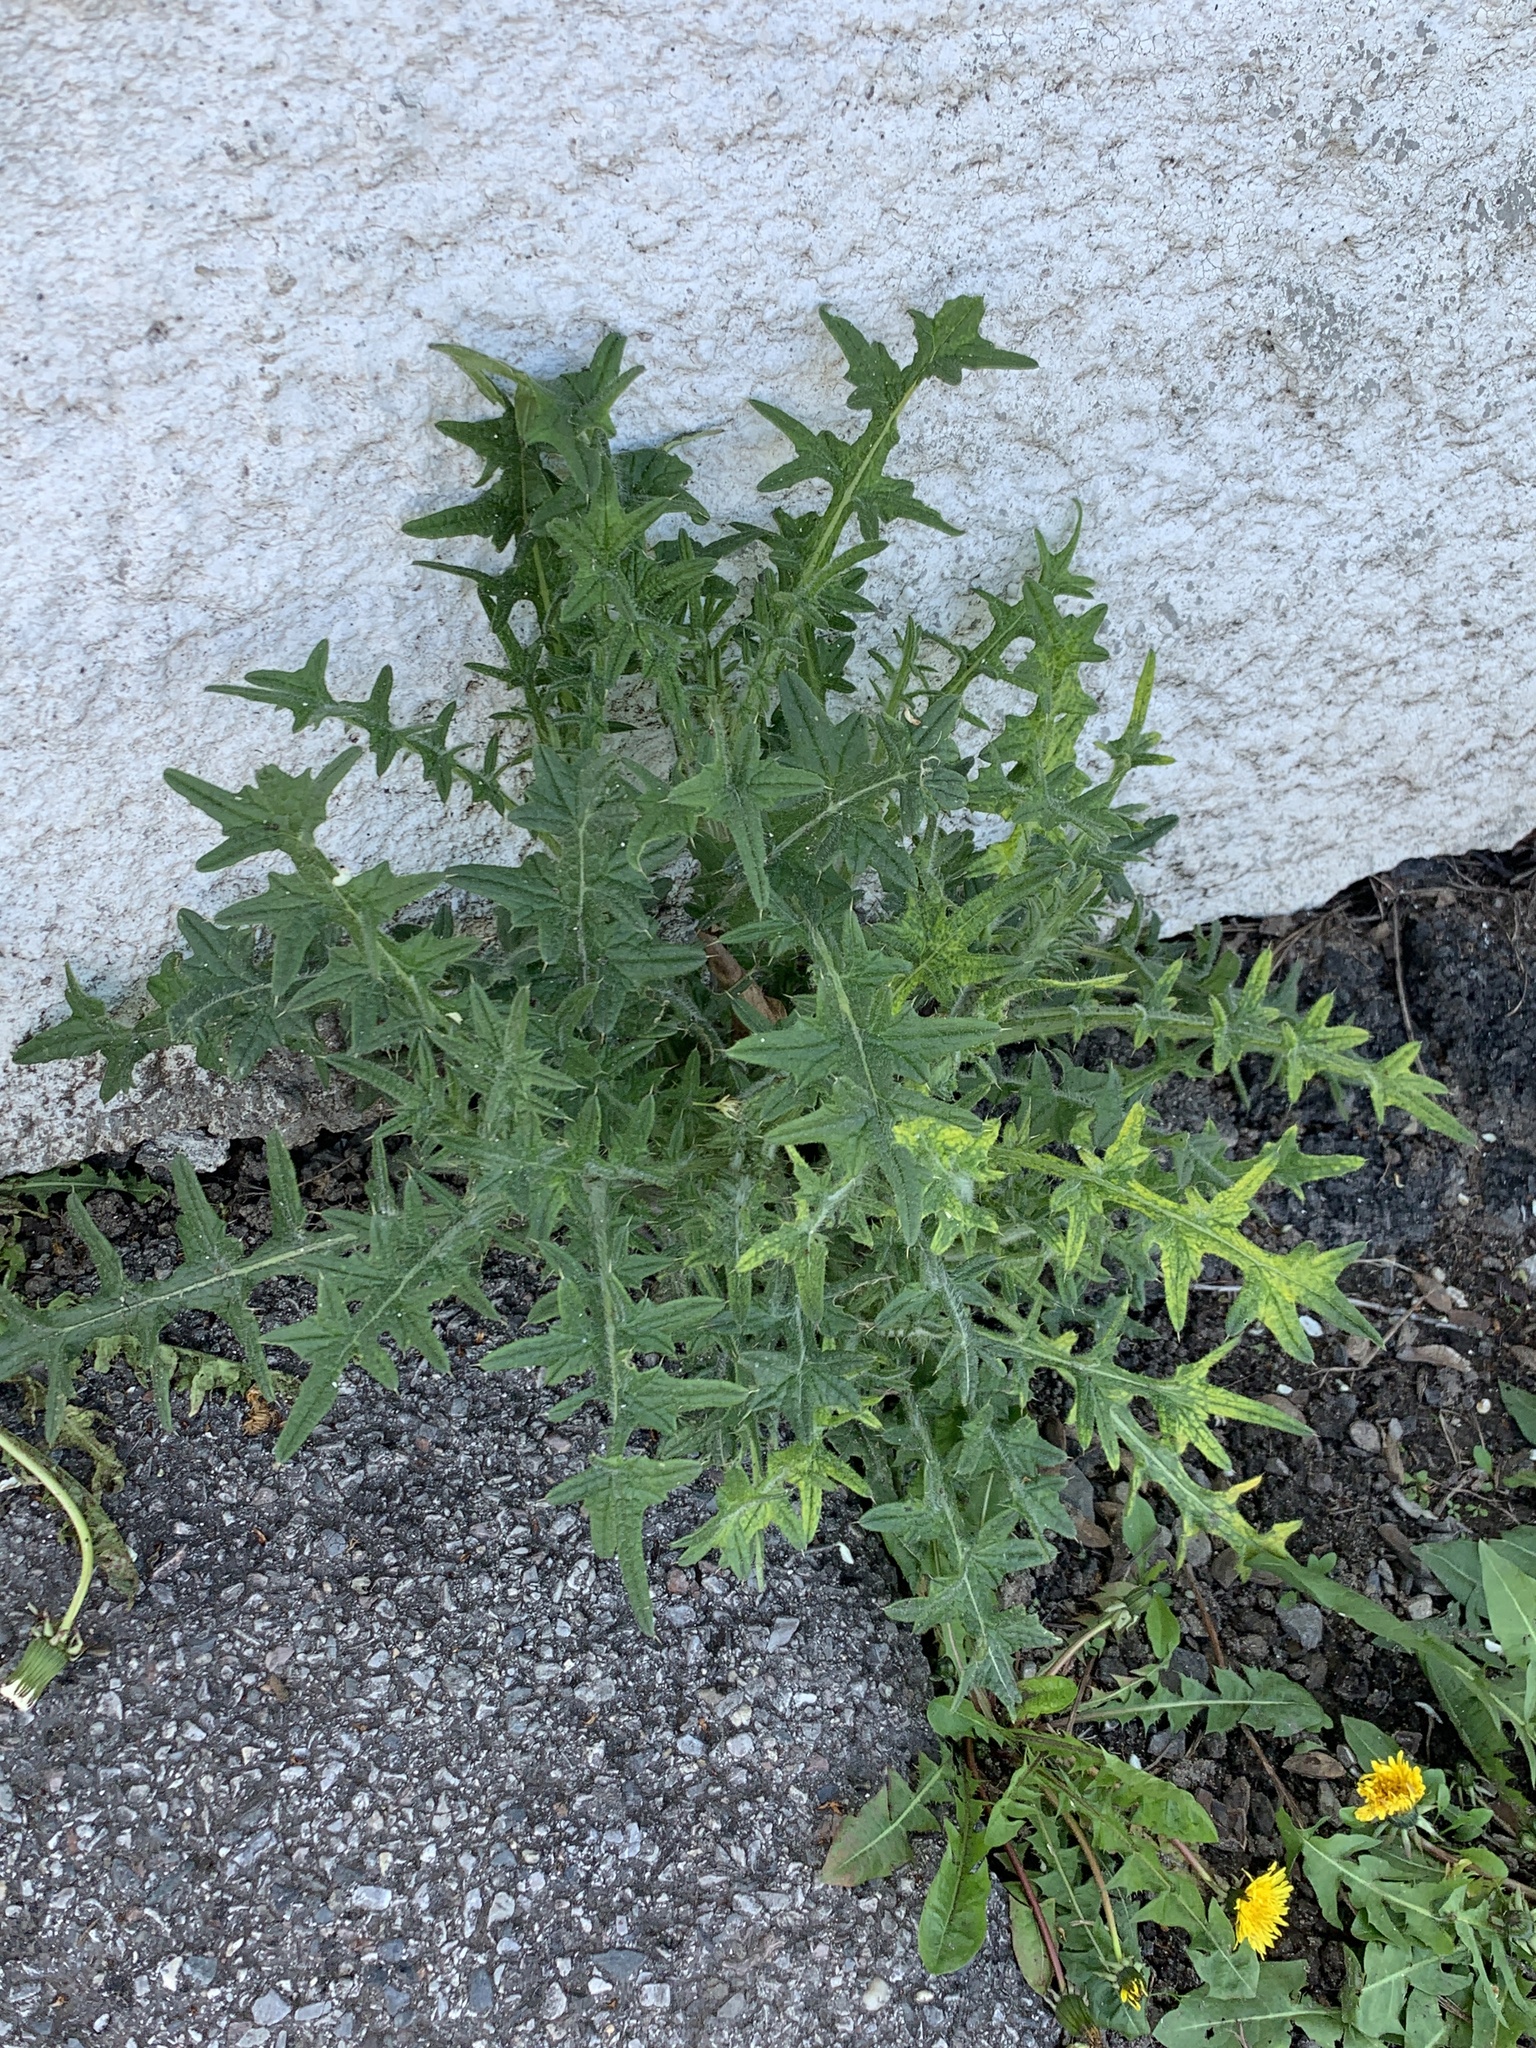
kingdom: Plantae
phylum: Tracheophyta
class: Magnoliopsida
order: Asterales
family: Asteraceae
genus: Cirsium
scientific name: Cirsium vulgare
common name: Bull thistle
